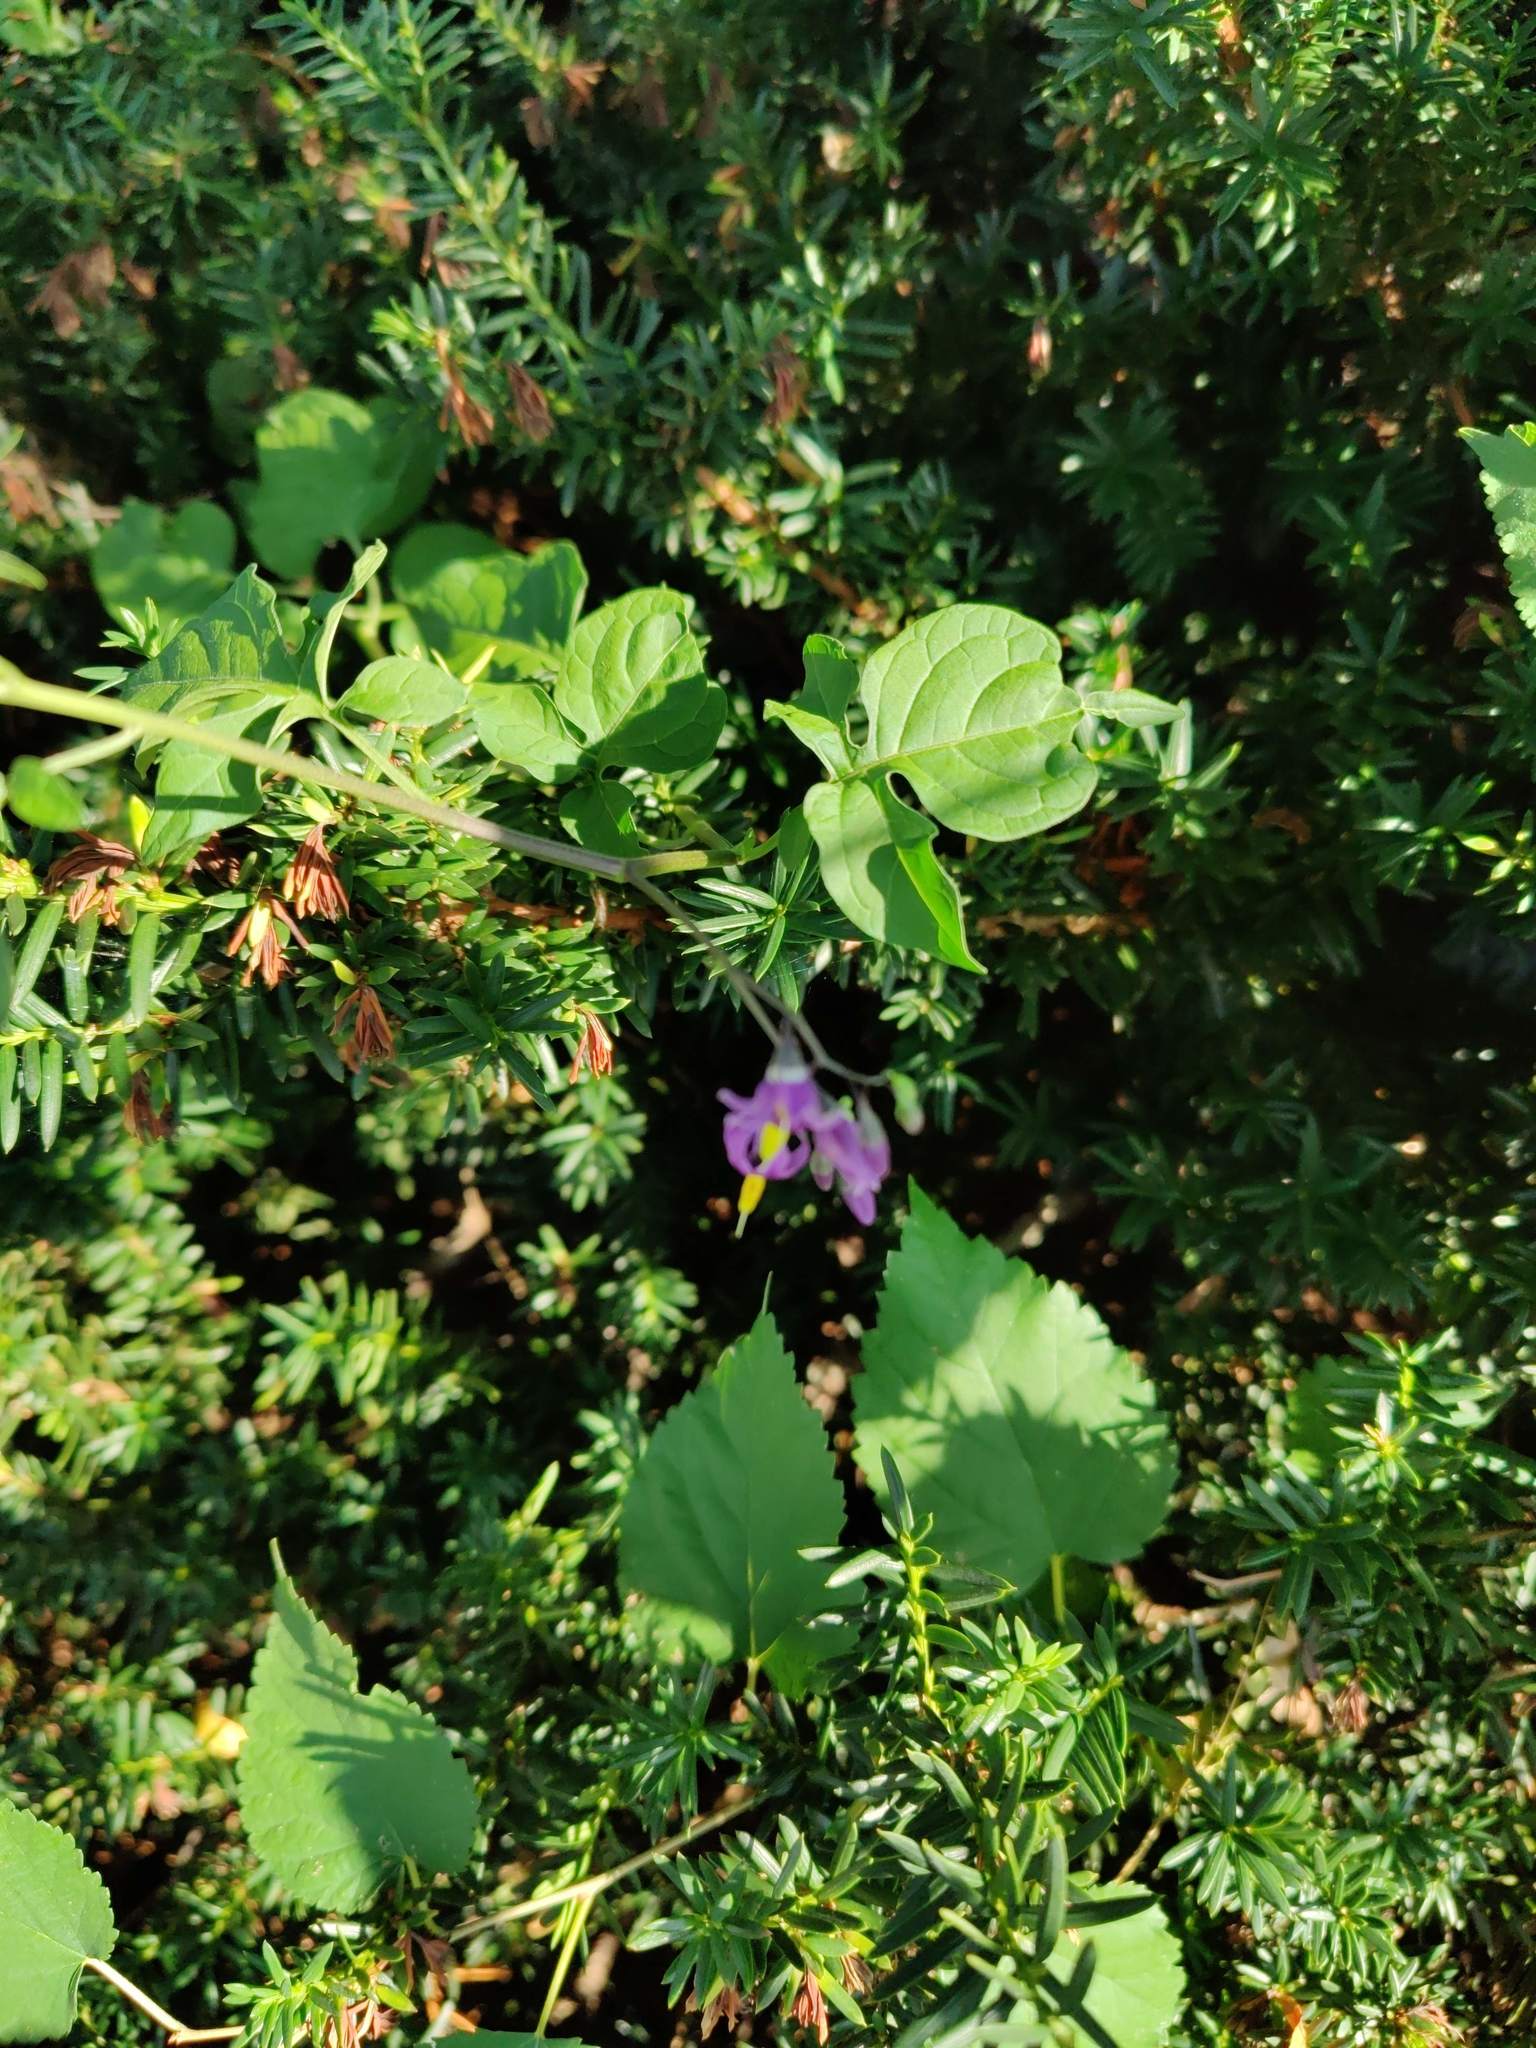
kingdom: Plantae
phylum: Tracheophyta
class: Magnoliopsida
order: Solanales
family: Solanaceae
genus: Solanum
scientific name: Solanum dulcamara
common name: Climbing nightshade
